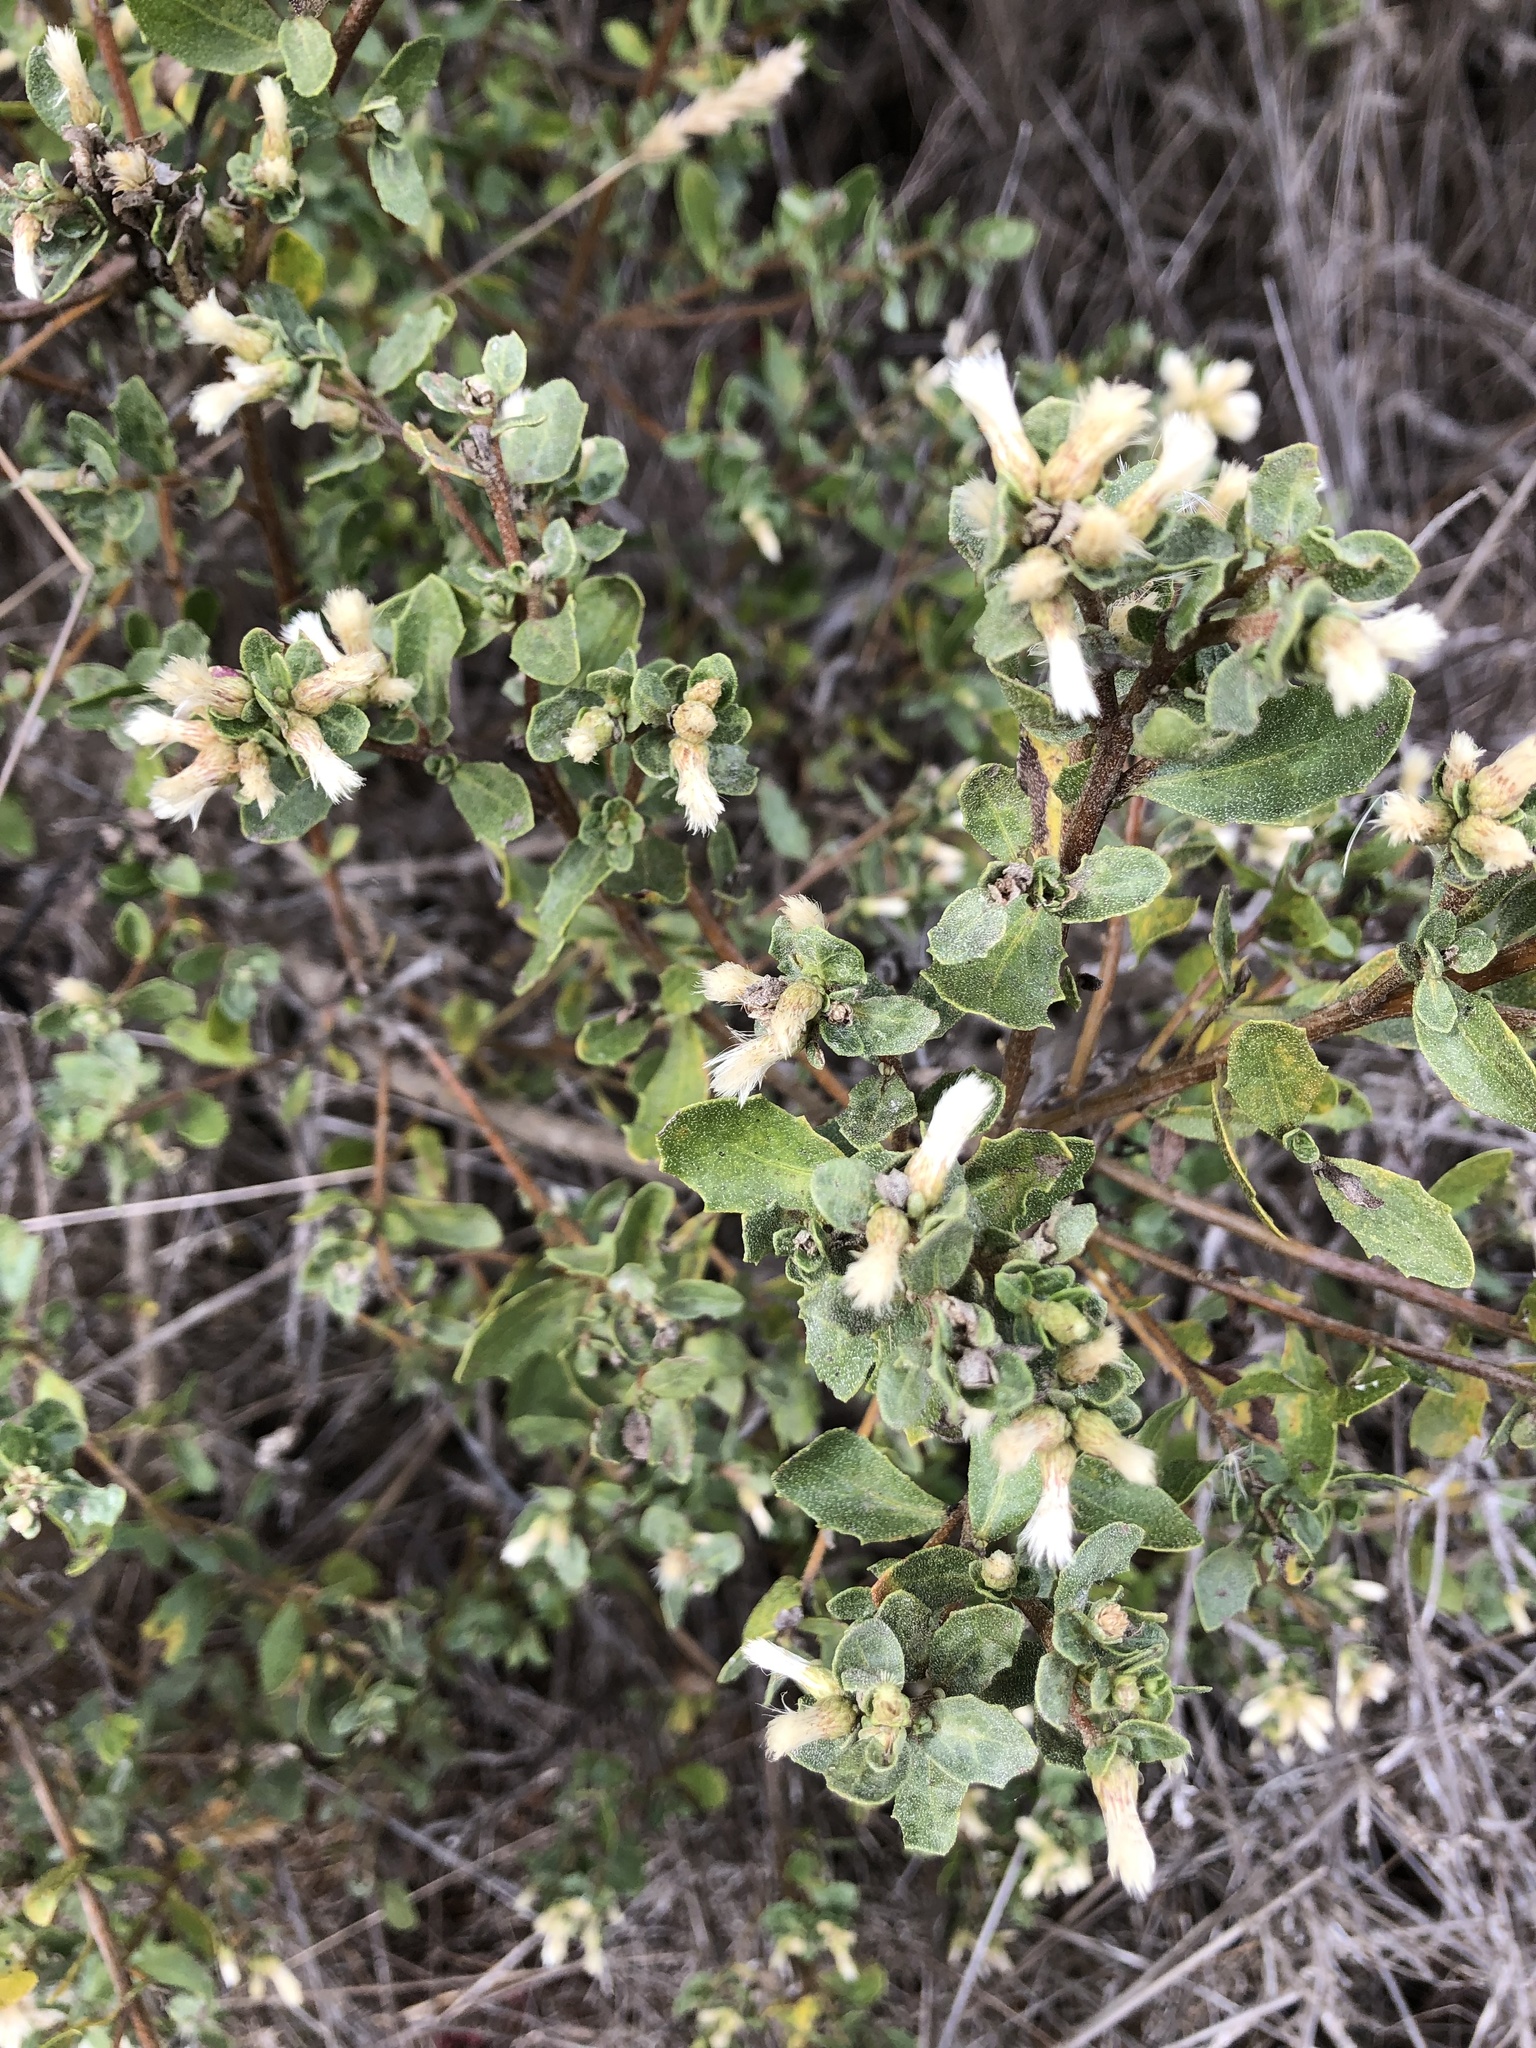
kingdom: Plantae
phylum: Tracheophyta
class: Magnoliopsida
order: Asterales
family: Asteraceae
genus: Baccharis
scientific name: Baccharis pilularis
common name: Coyotebrush
